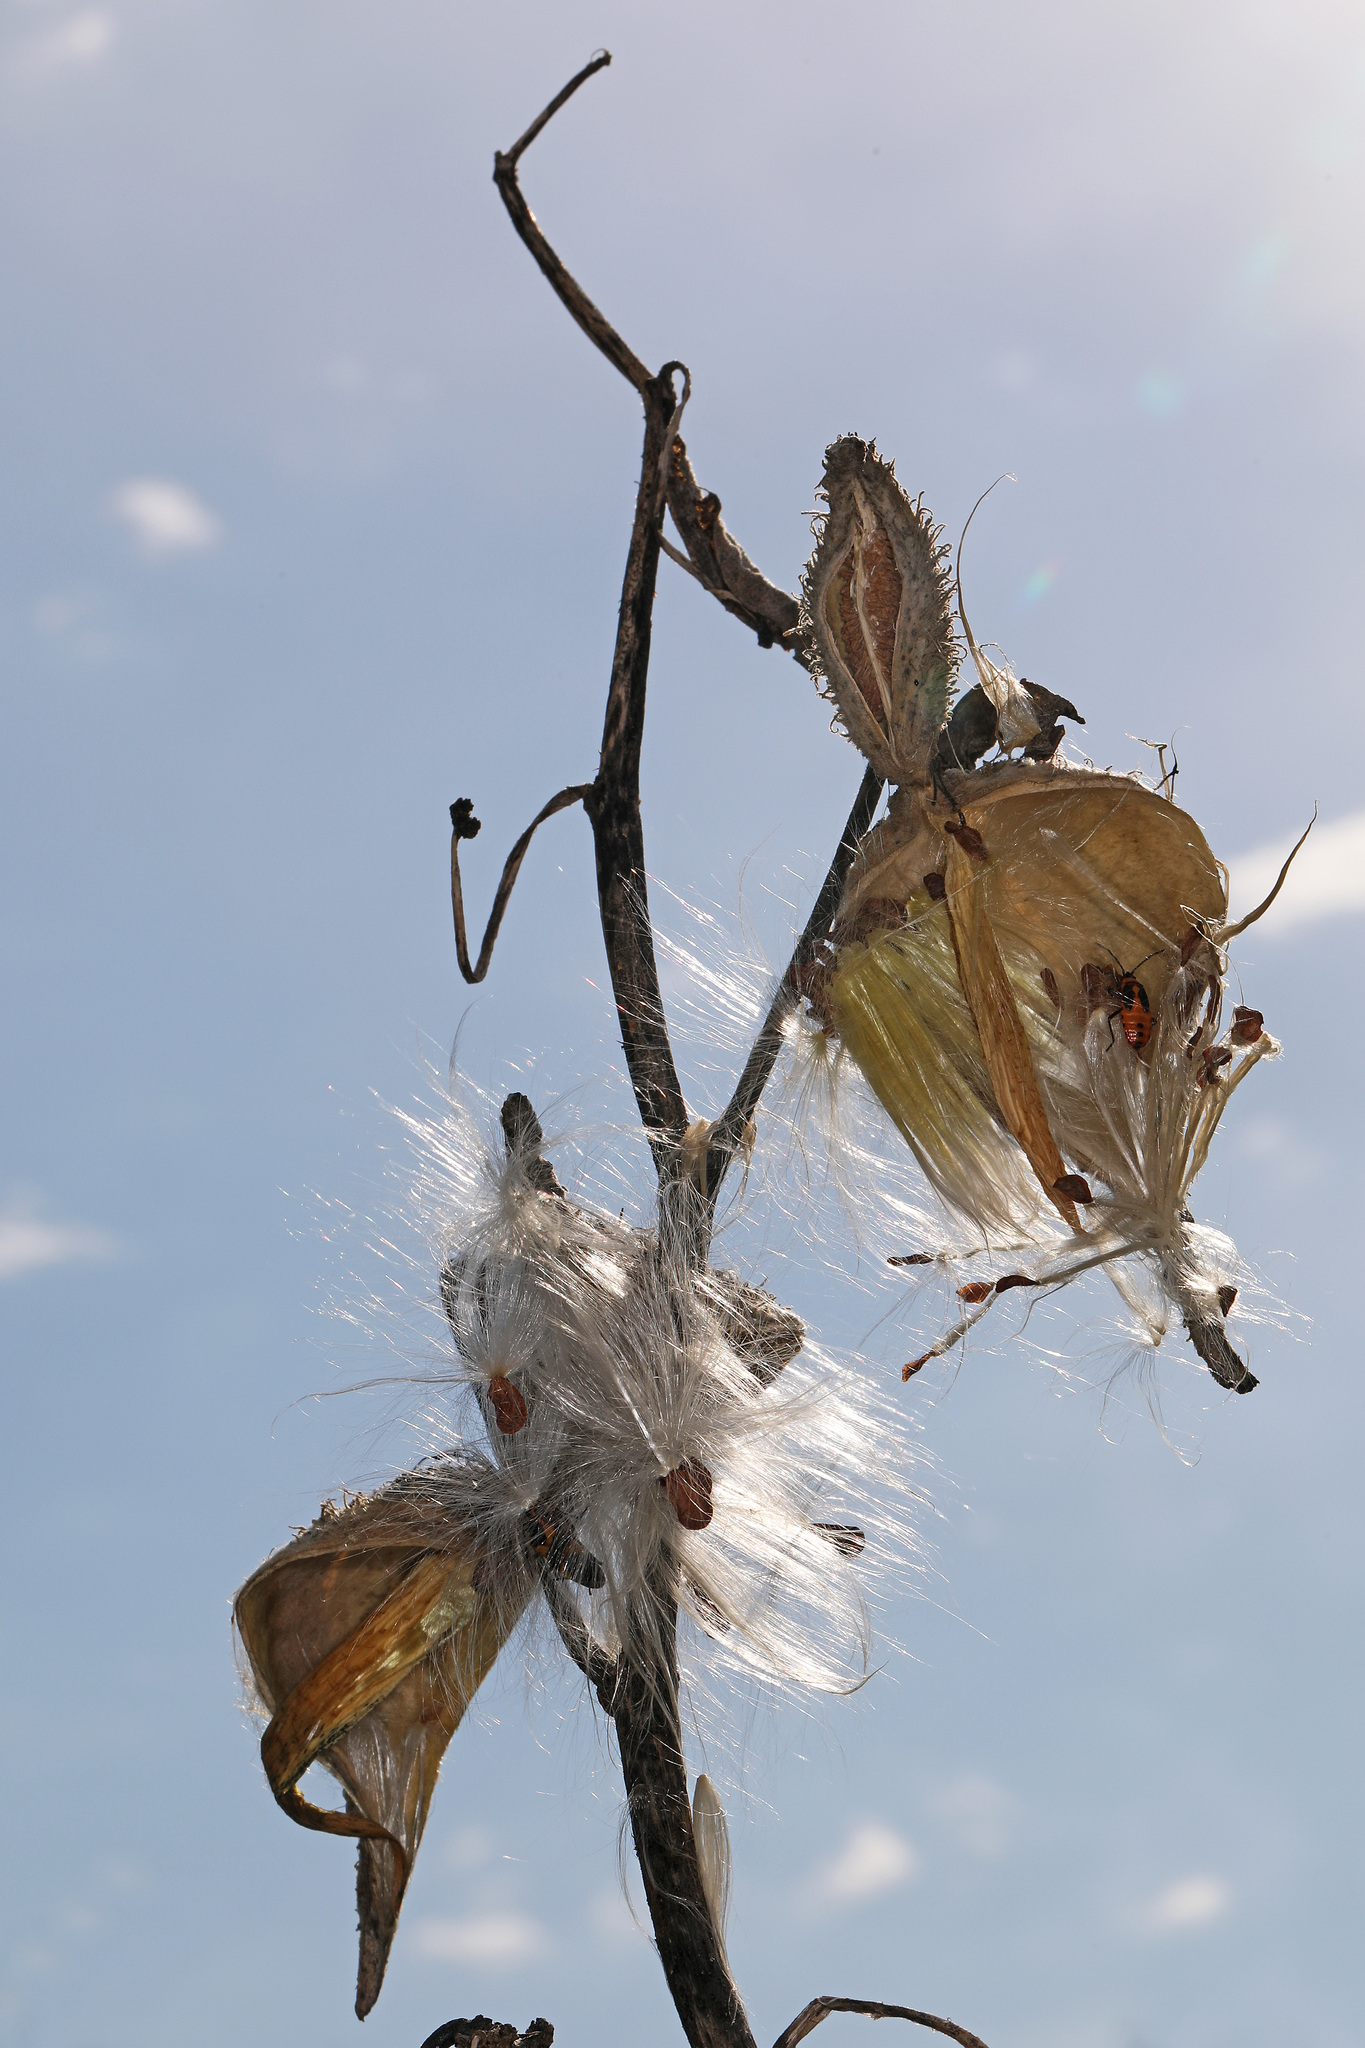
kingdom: Plantae
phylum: Tracheophyta
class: Magnoliopsida
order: Gentianales
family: Apocynaceae
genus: Asclepias
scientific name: Asclepias syriaca
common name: Common milkweed
